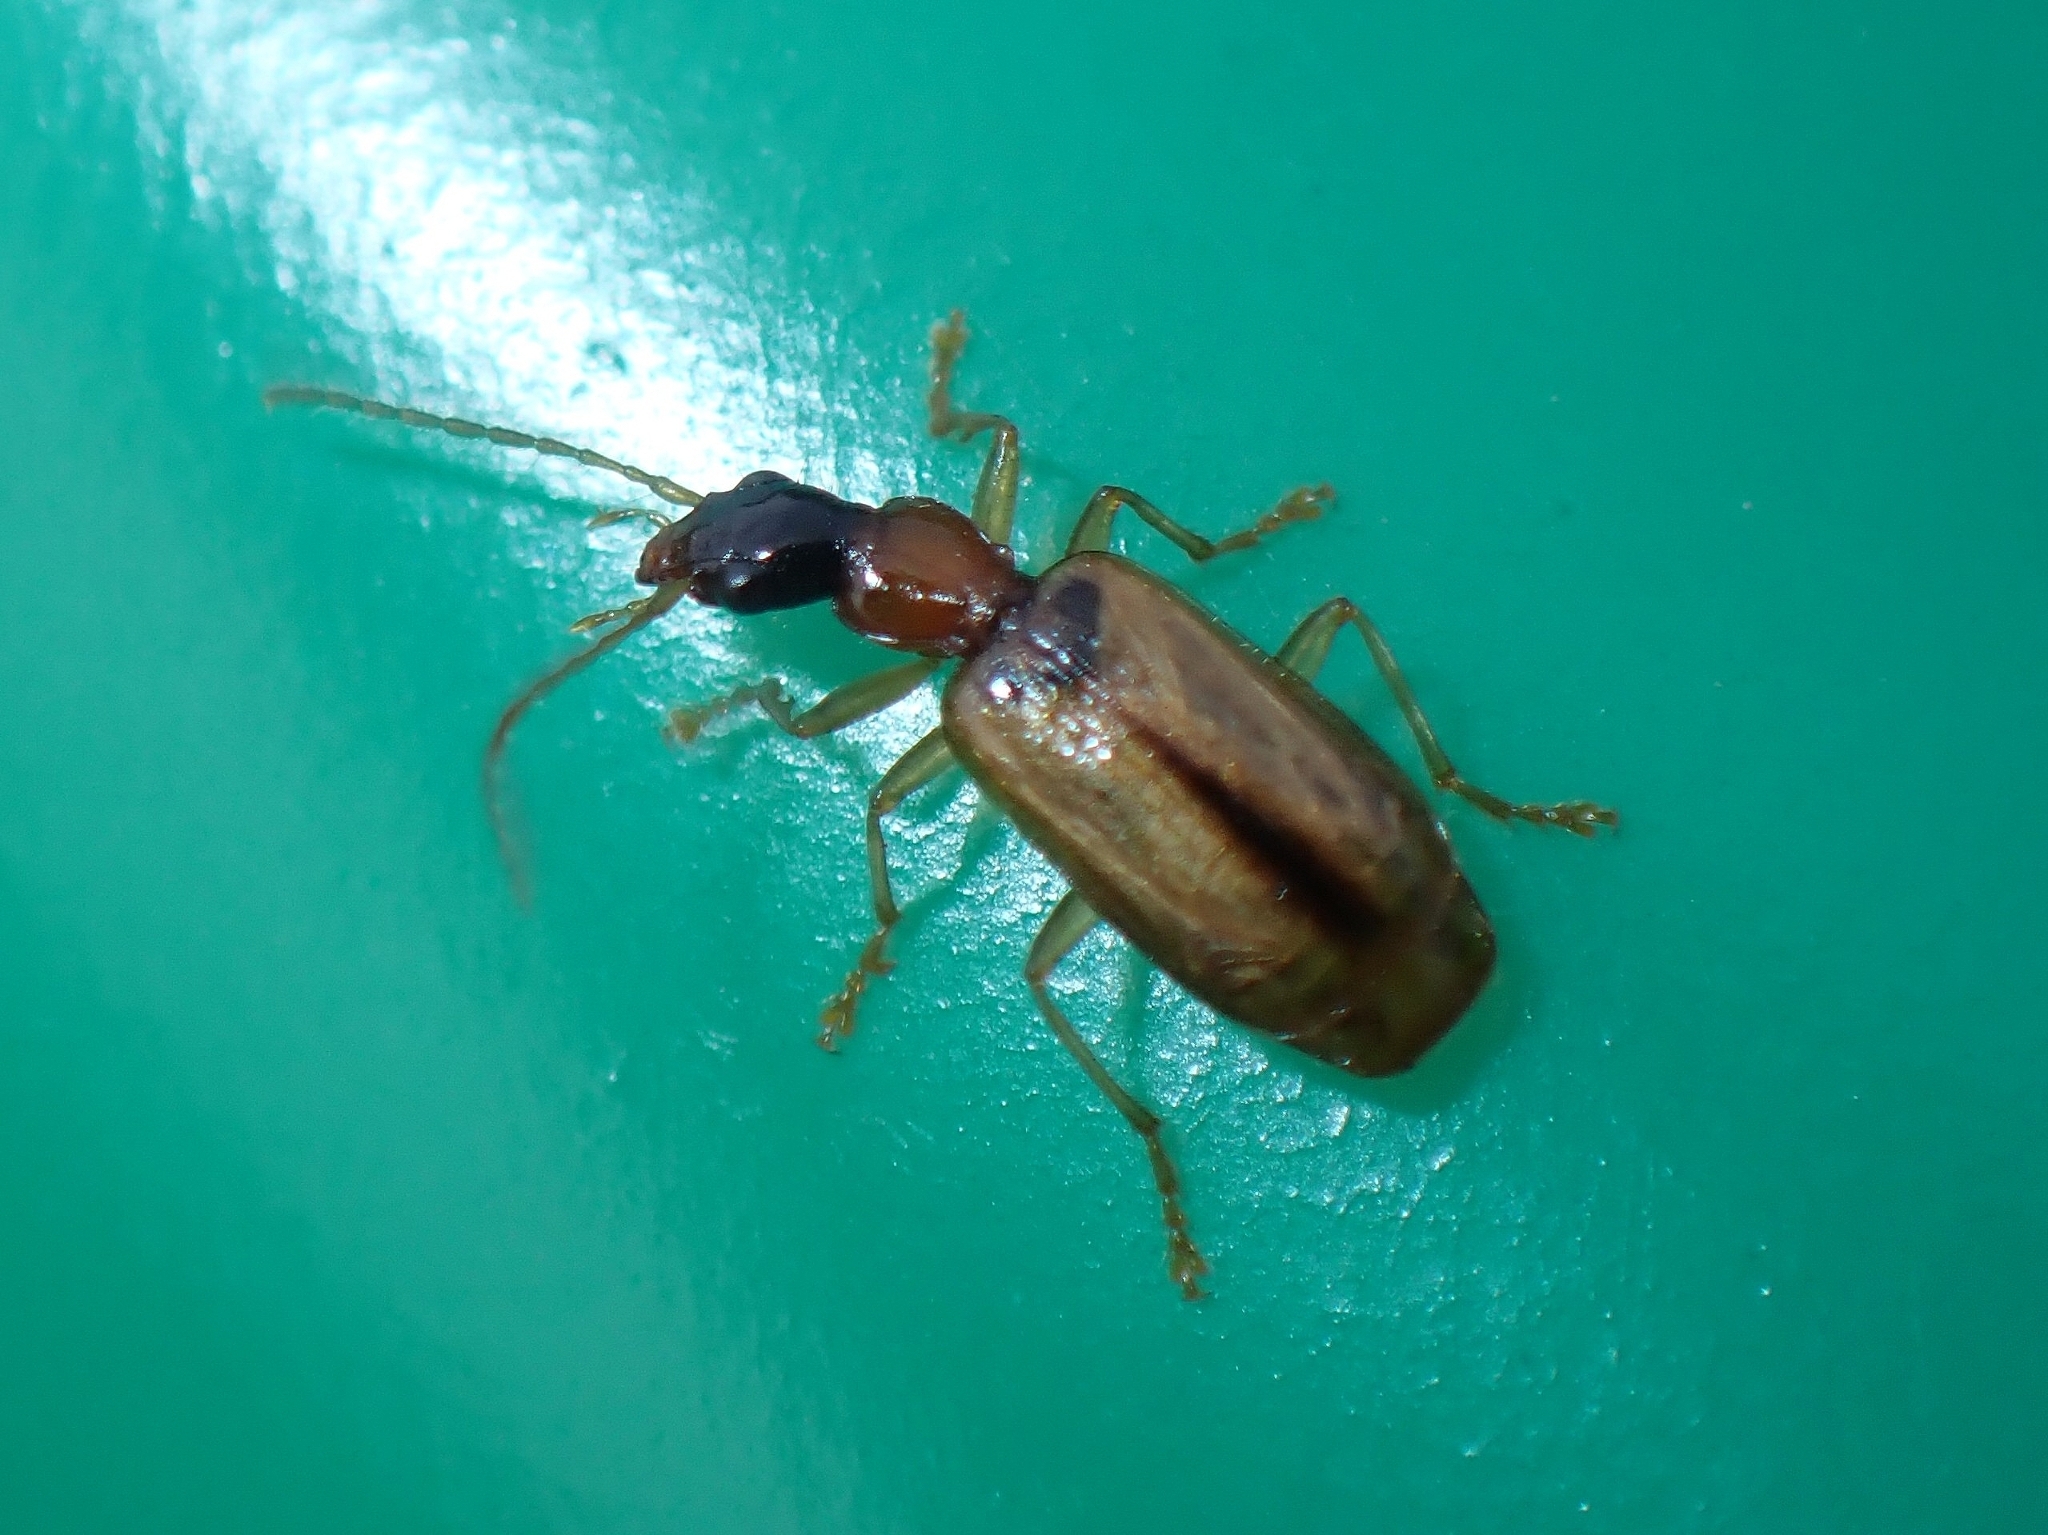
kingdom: Animalia
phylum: Arthropoda
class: Insecta
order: Coleoptera
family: Carabidae
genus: Demetrias
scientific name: Demetrias atricapillus
